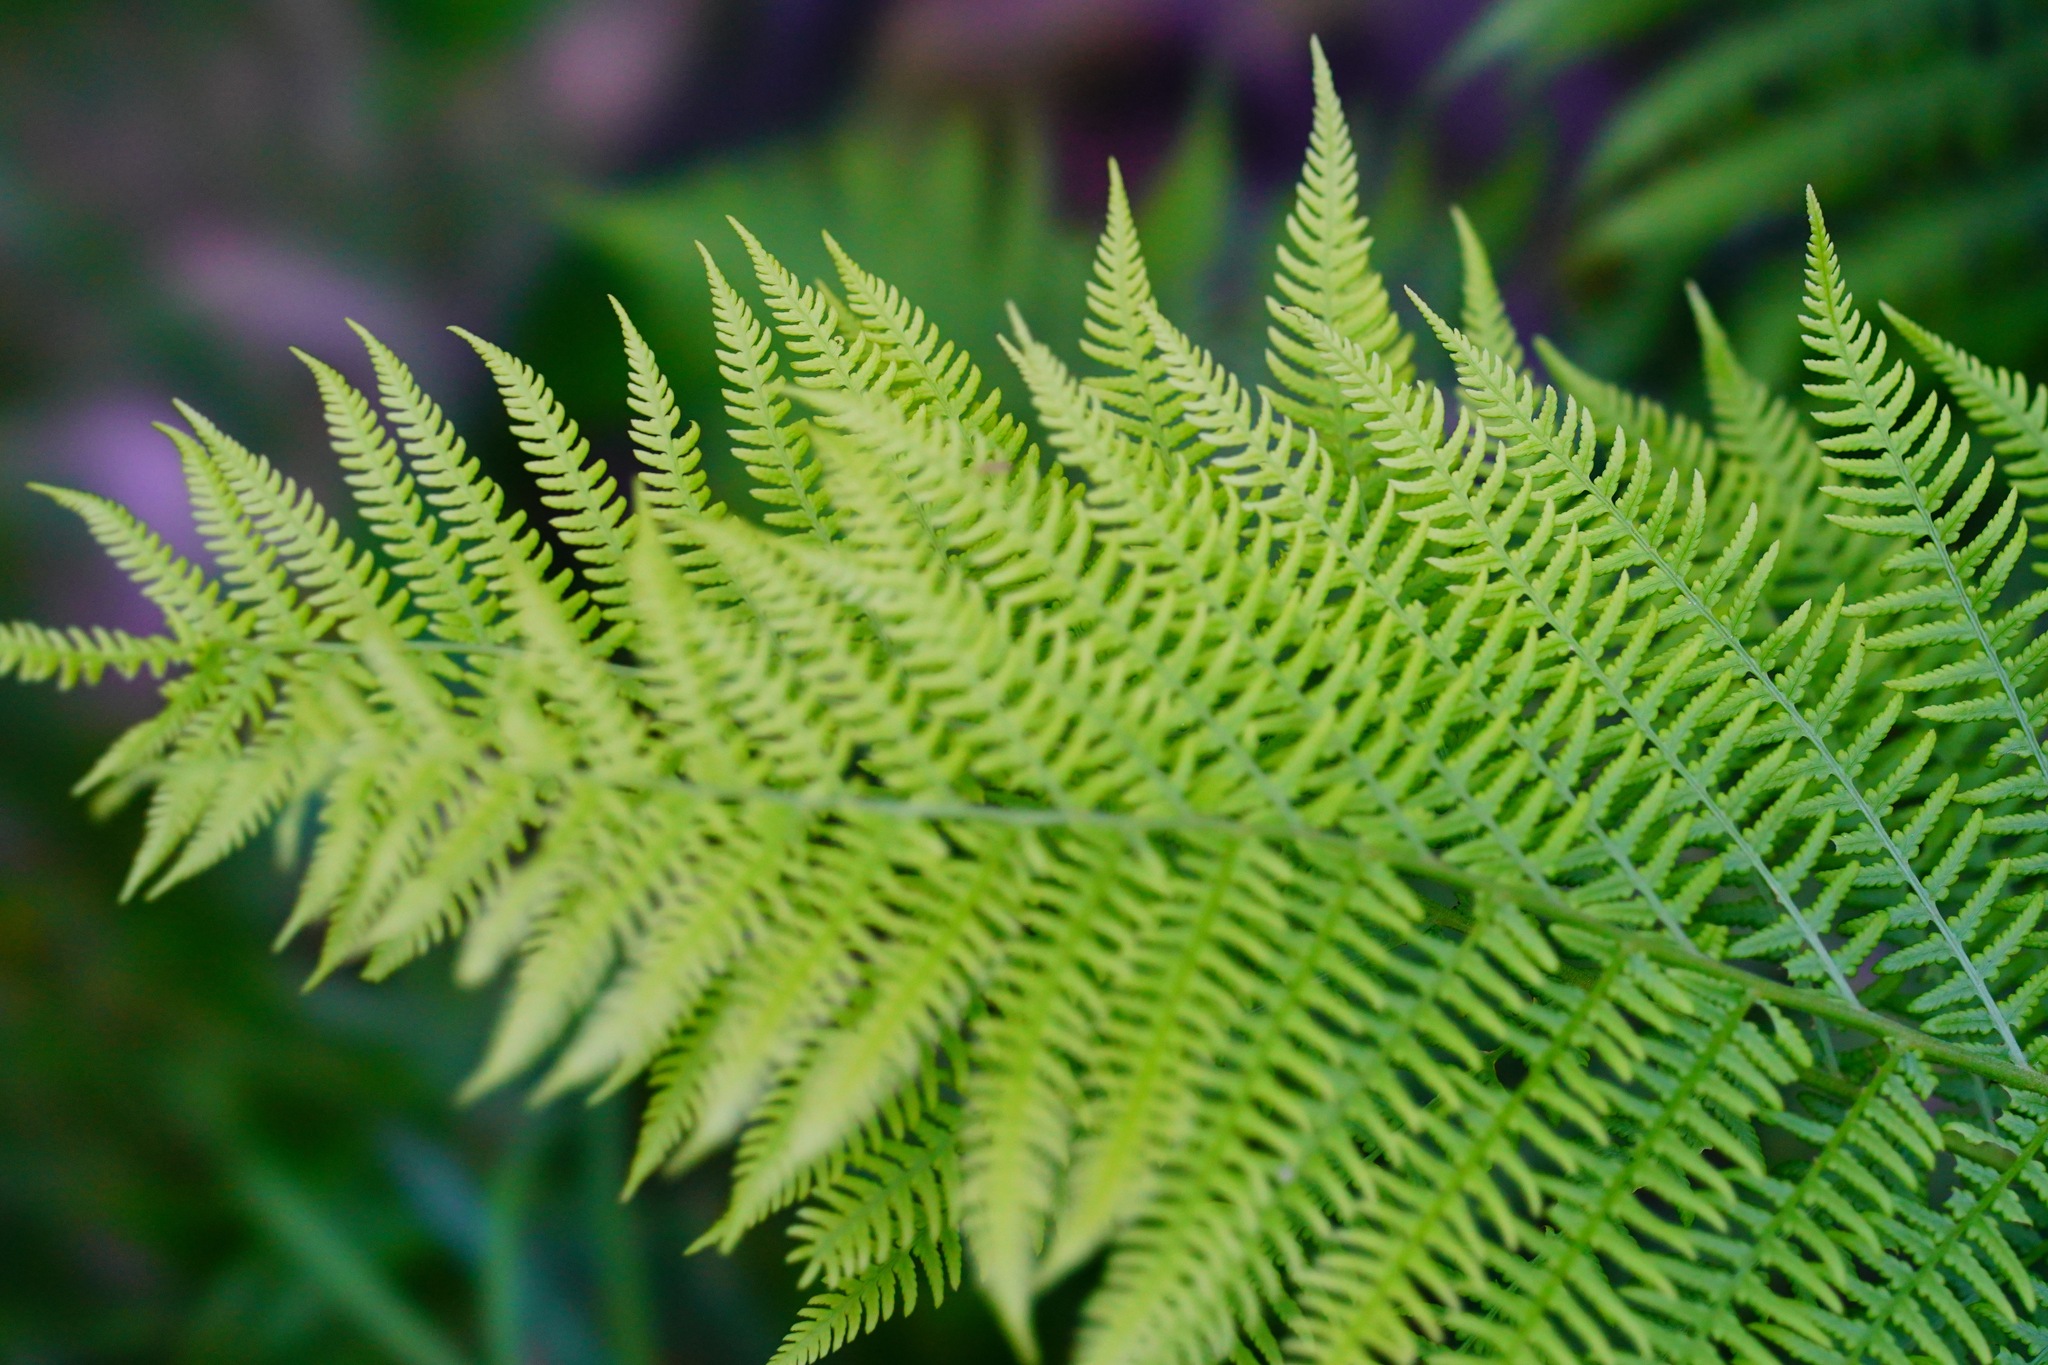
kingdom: Plantae
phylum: Tracheophyta
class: Polypodiopsida
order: Polypodiales
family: Athyriaceae
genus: Athyrium
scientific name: Athyrium filix-femina
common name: Lady fern
